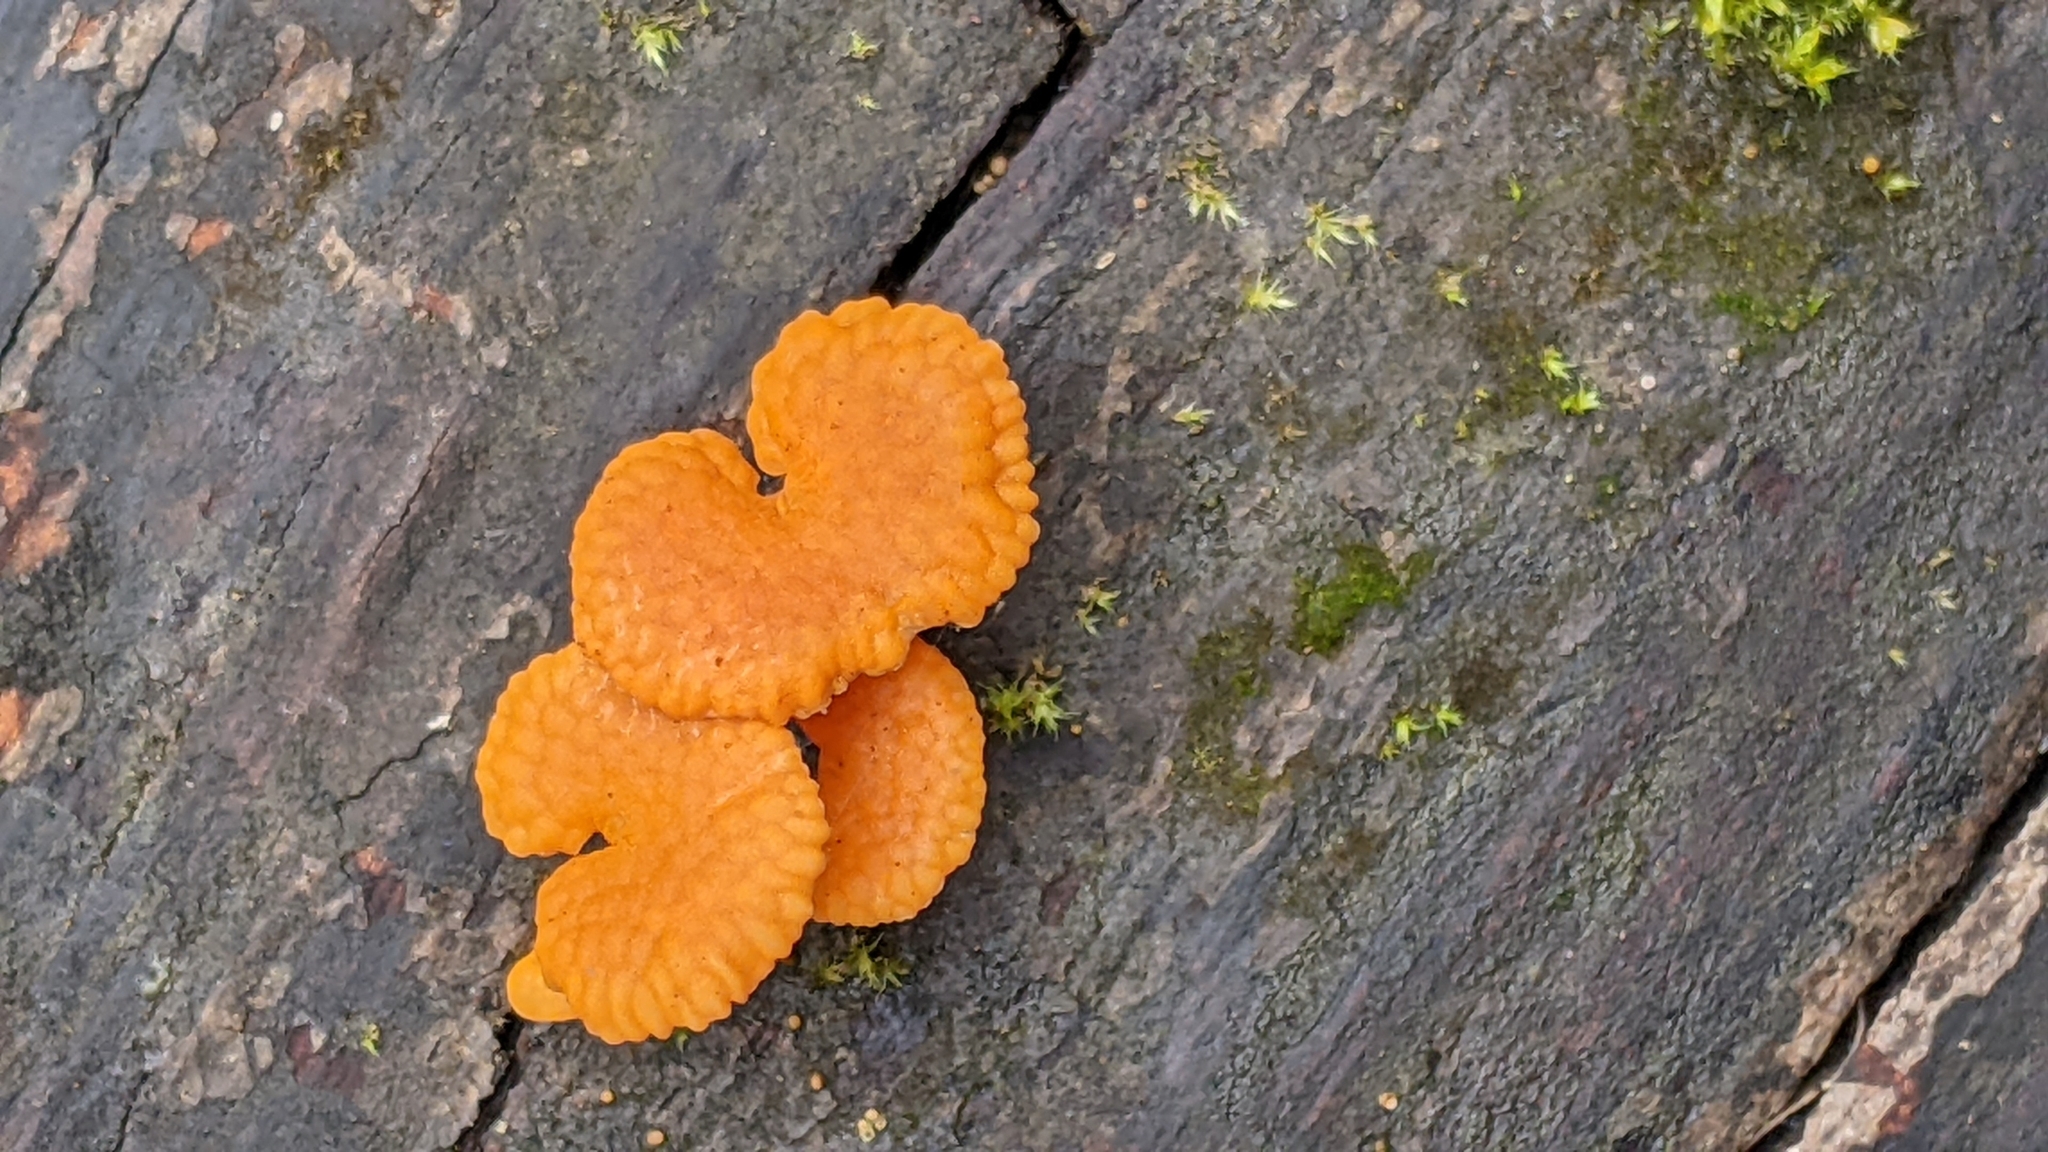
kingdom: Fungi
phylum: Basidiomycota
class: Agaricomycetes
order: Agaricales
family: Mycenaceae
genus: Favolaschia
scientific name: Favolaschia claudopus
